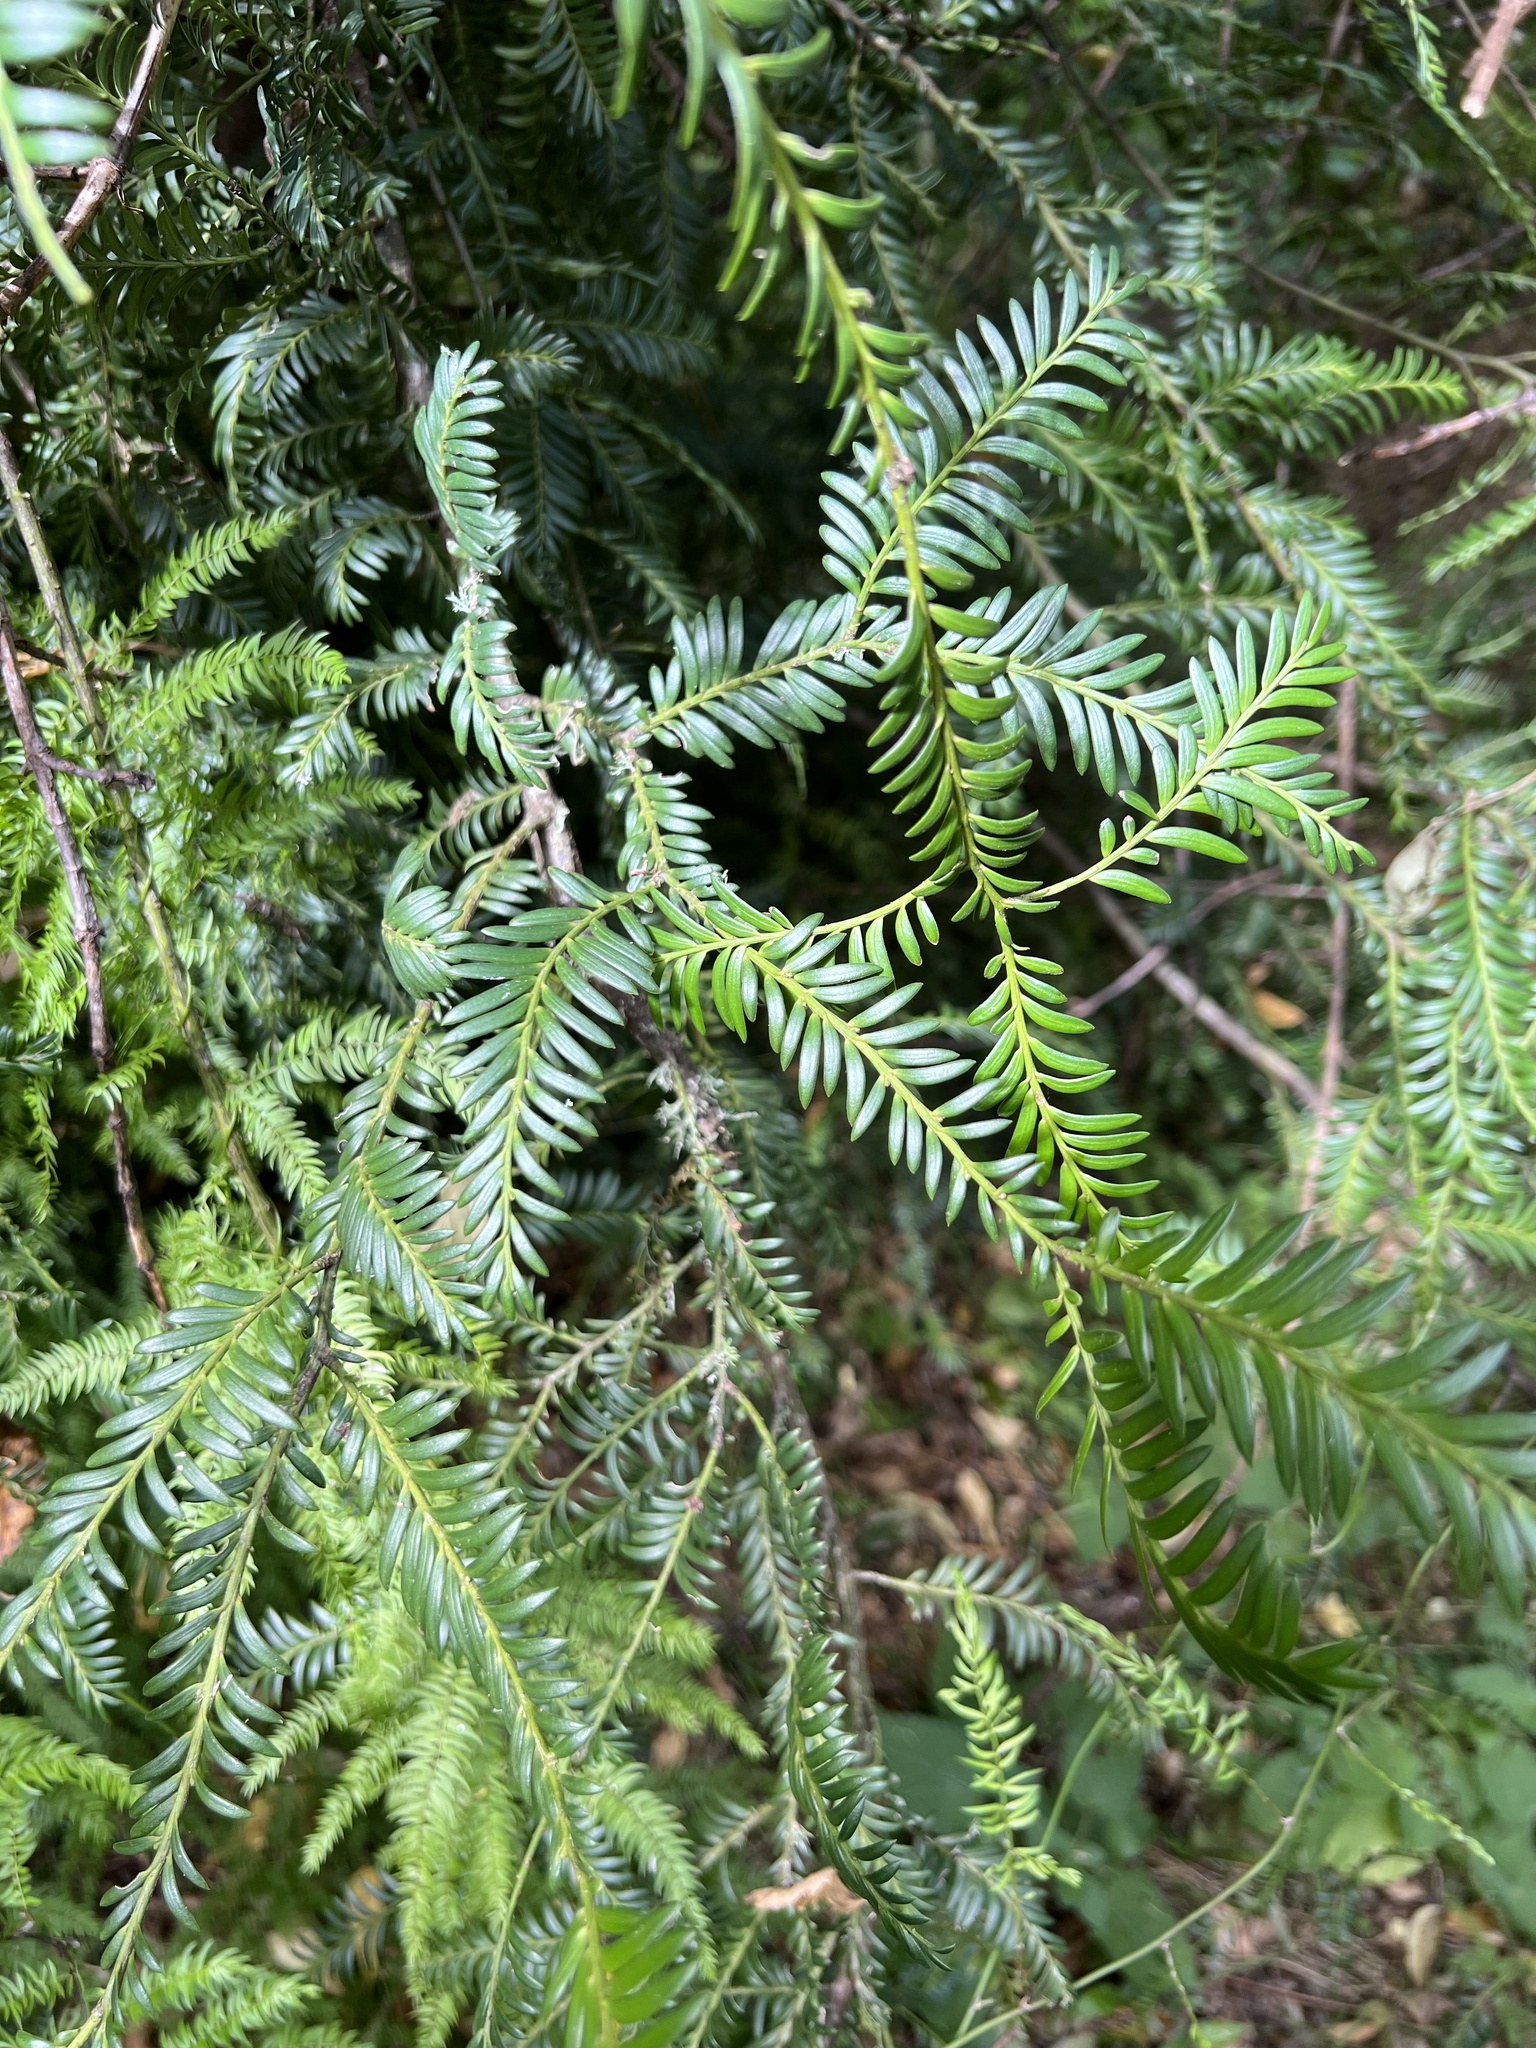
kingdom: Plantae
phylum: Tracheophyta
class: Pinopsida
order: Pinales
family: Podocarpaceae
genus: Prumnopitys
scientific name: Prumnopitys ferruginea
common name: Brown pine
